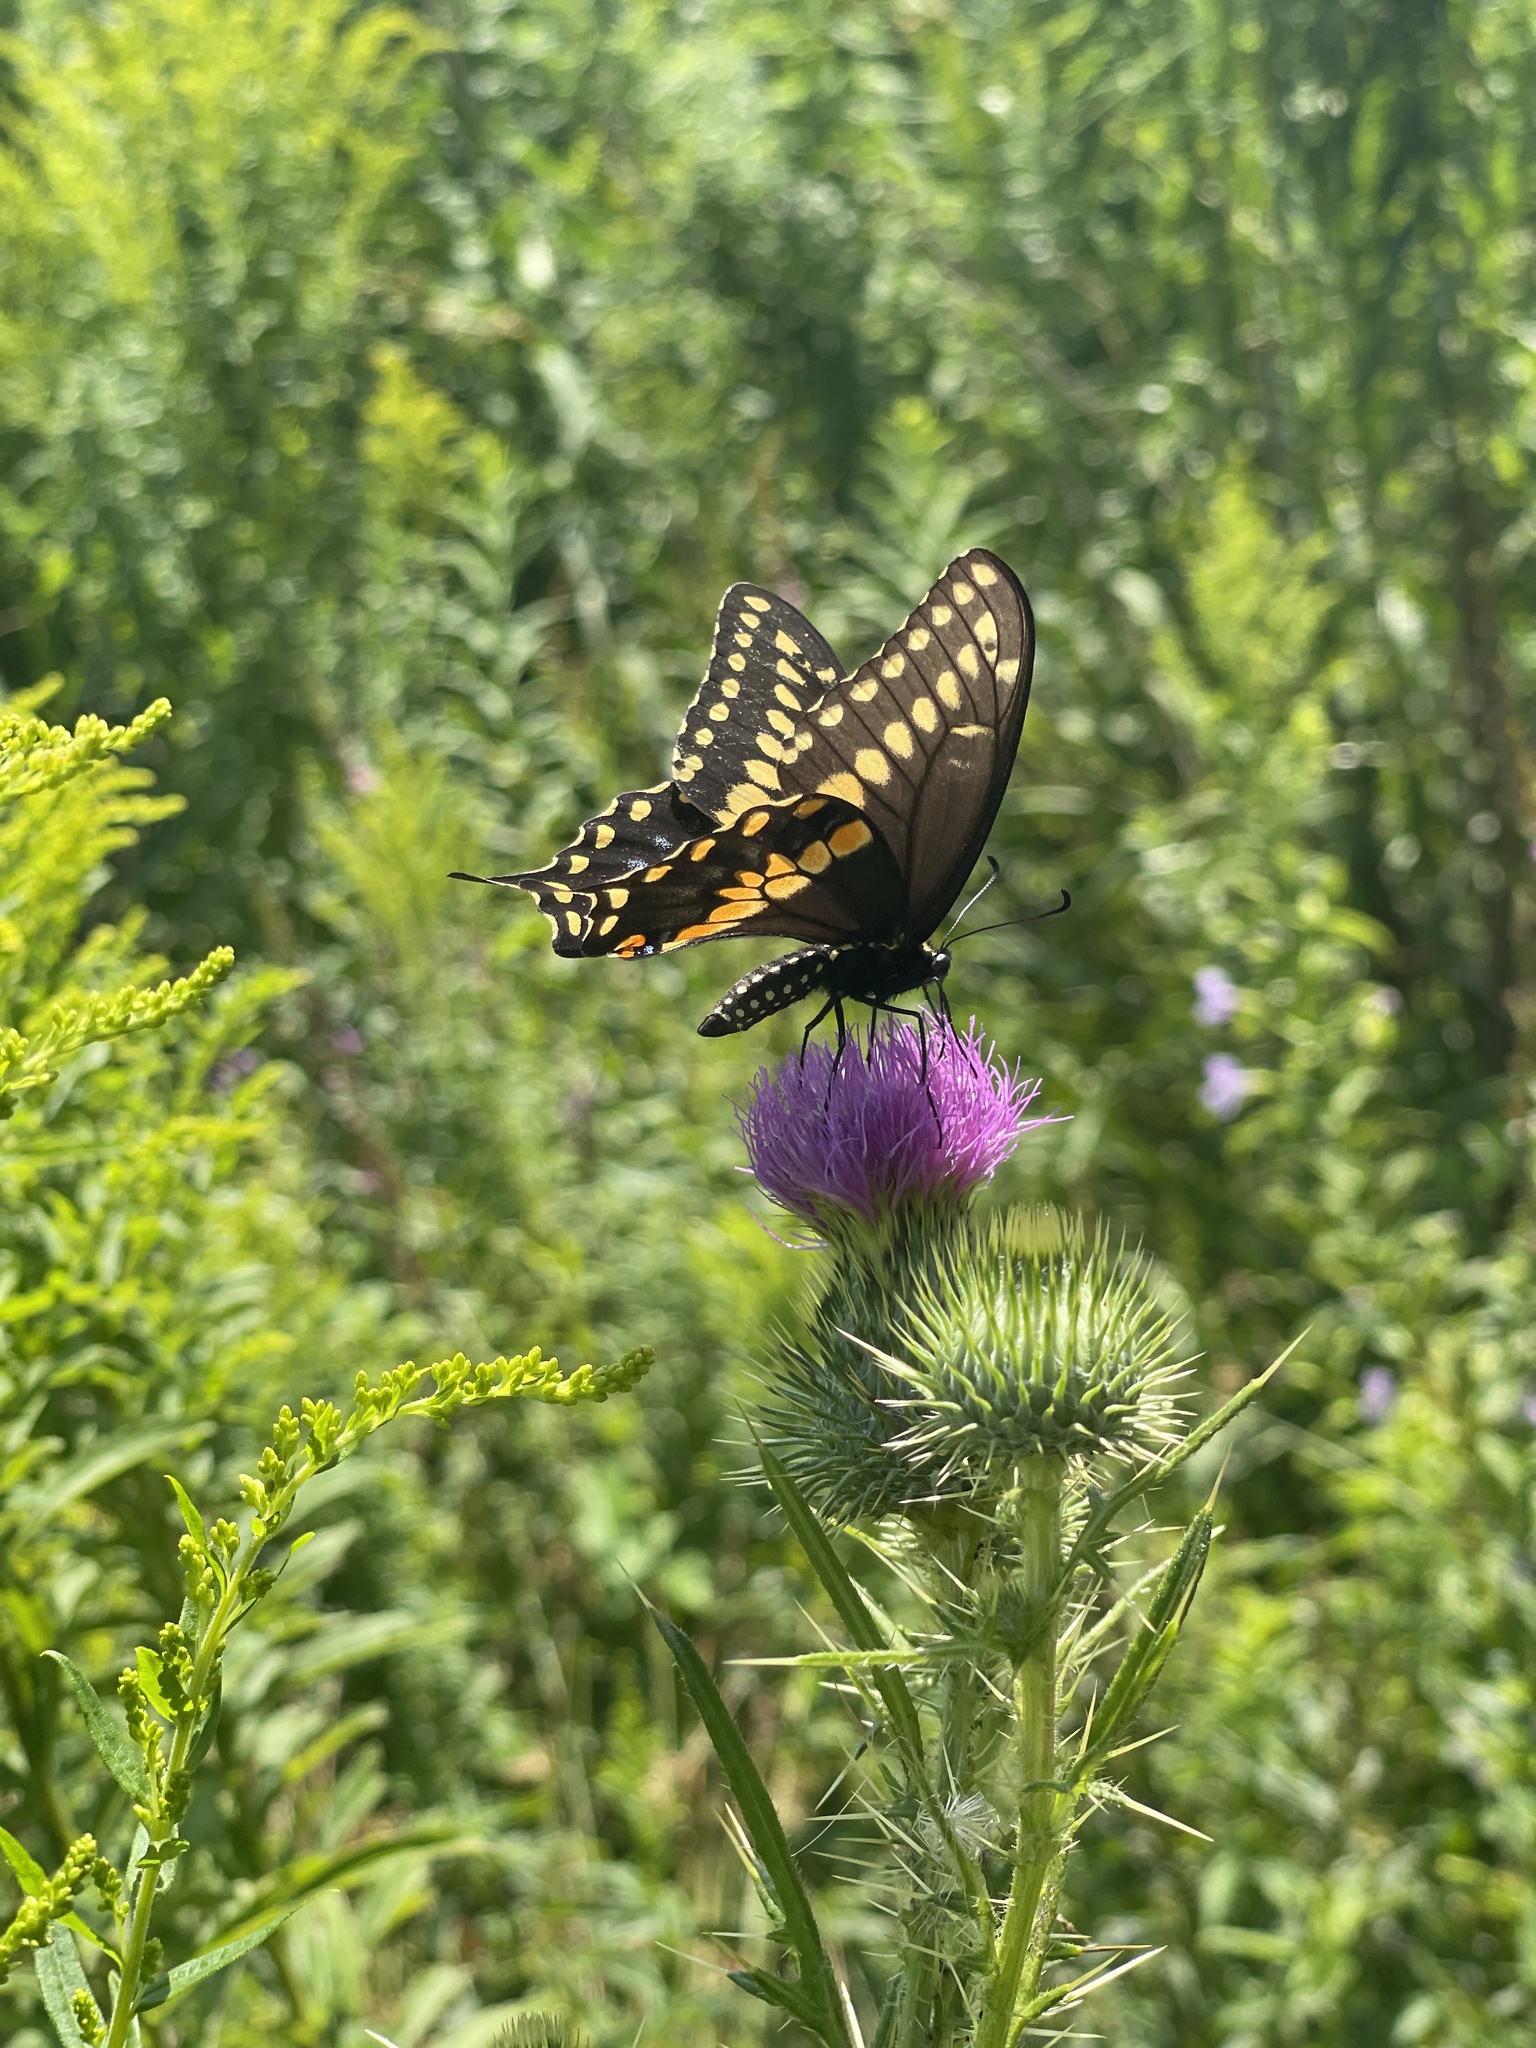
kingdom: Animalia
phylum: Arthropoda
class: Insecta
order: Lepidoptera
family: Papilionidae
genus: Papilio
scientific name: Papilio polyxenes
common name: Black swallowtail
